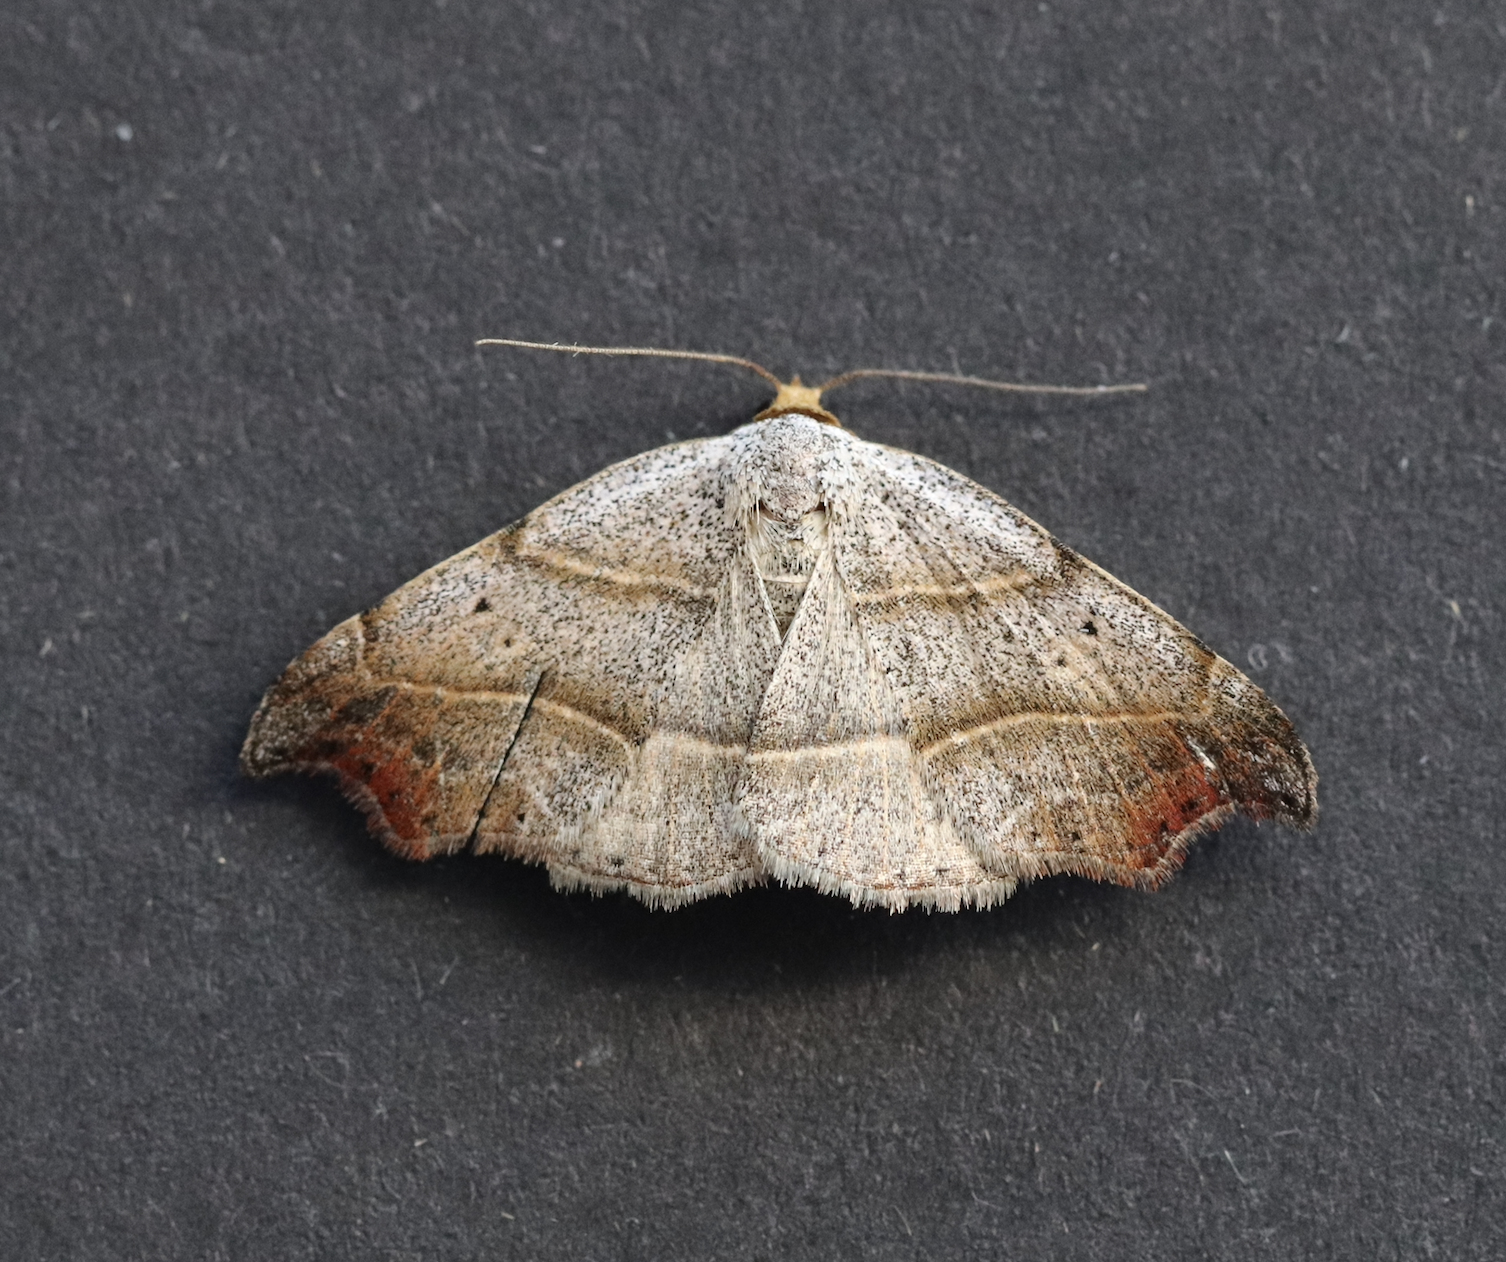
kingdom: Animalia
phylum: Arthropoda
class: Insecta
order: Lepidoptera
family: Erebidae
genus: Laspeyria
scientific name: Laspeyria flexula
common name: Beautiful hook-tip
